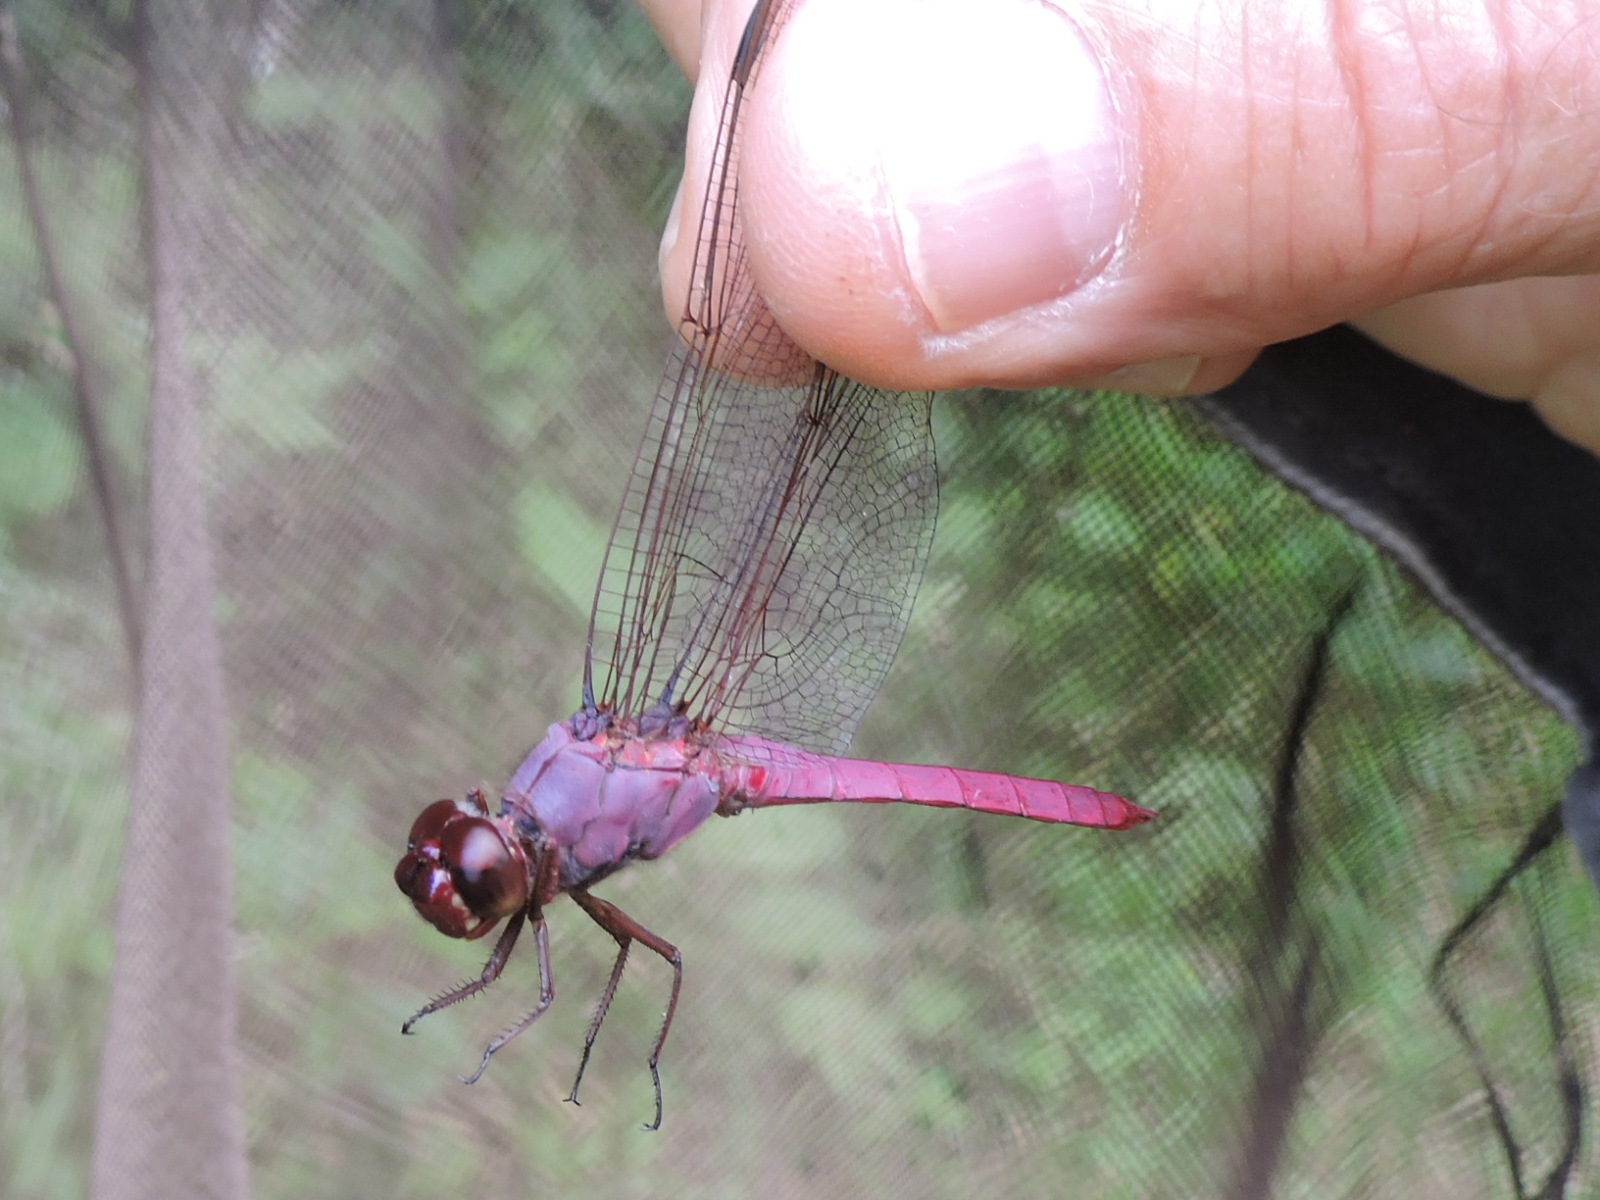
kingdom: Animalia
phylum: Arthropoda
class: Insecta
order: Odonata
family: Libellulidae
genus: Orthemis
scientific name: Orthemis ferruginea
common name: Roseate skimmer
